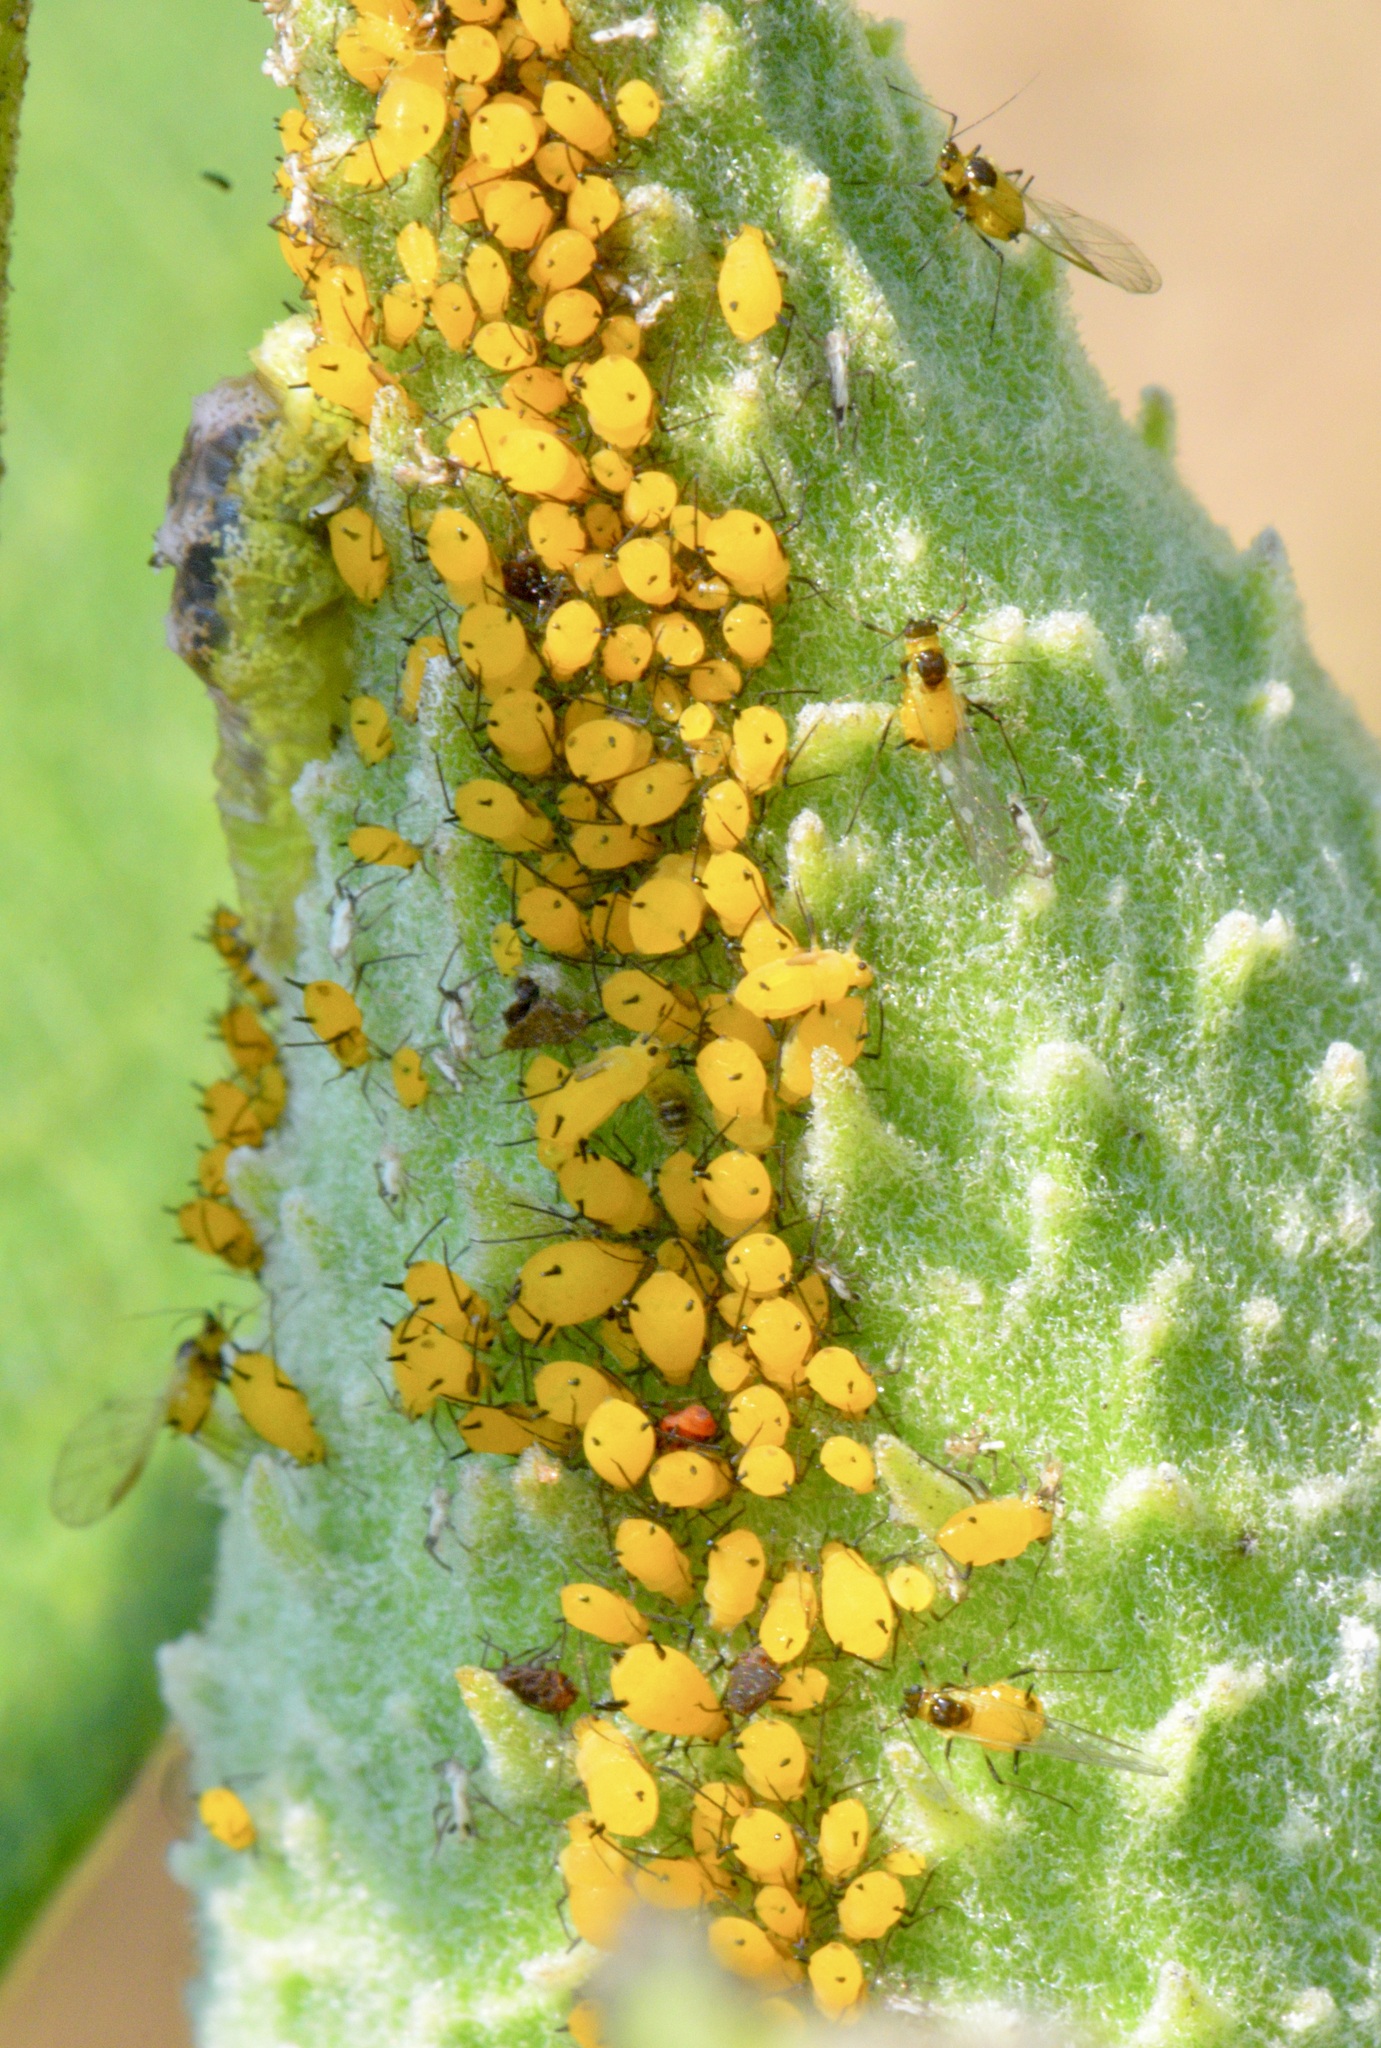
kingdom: Animalia
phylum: Arthropoda
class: Insecta
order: Hemiptera
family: Aphididae
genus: Aphis
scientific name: Aphis nerii
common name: Oleander aphid
